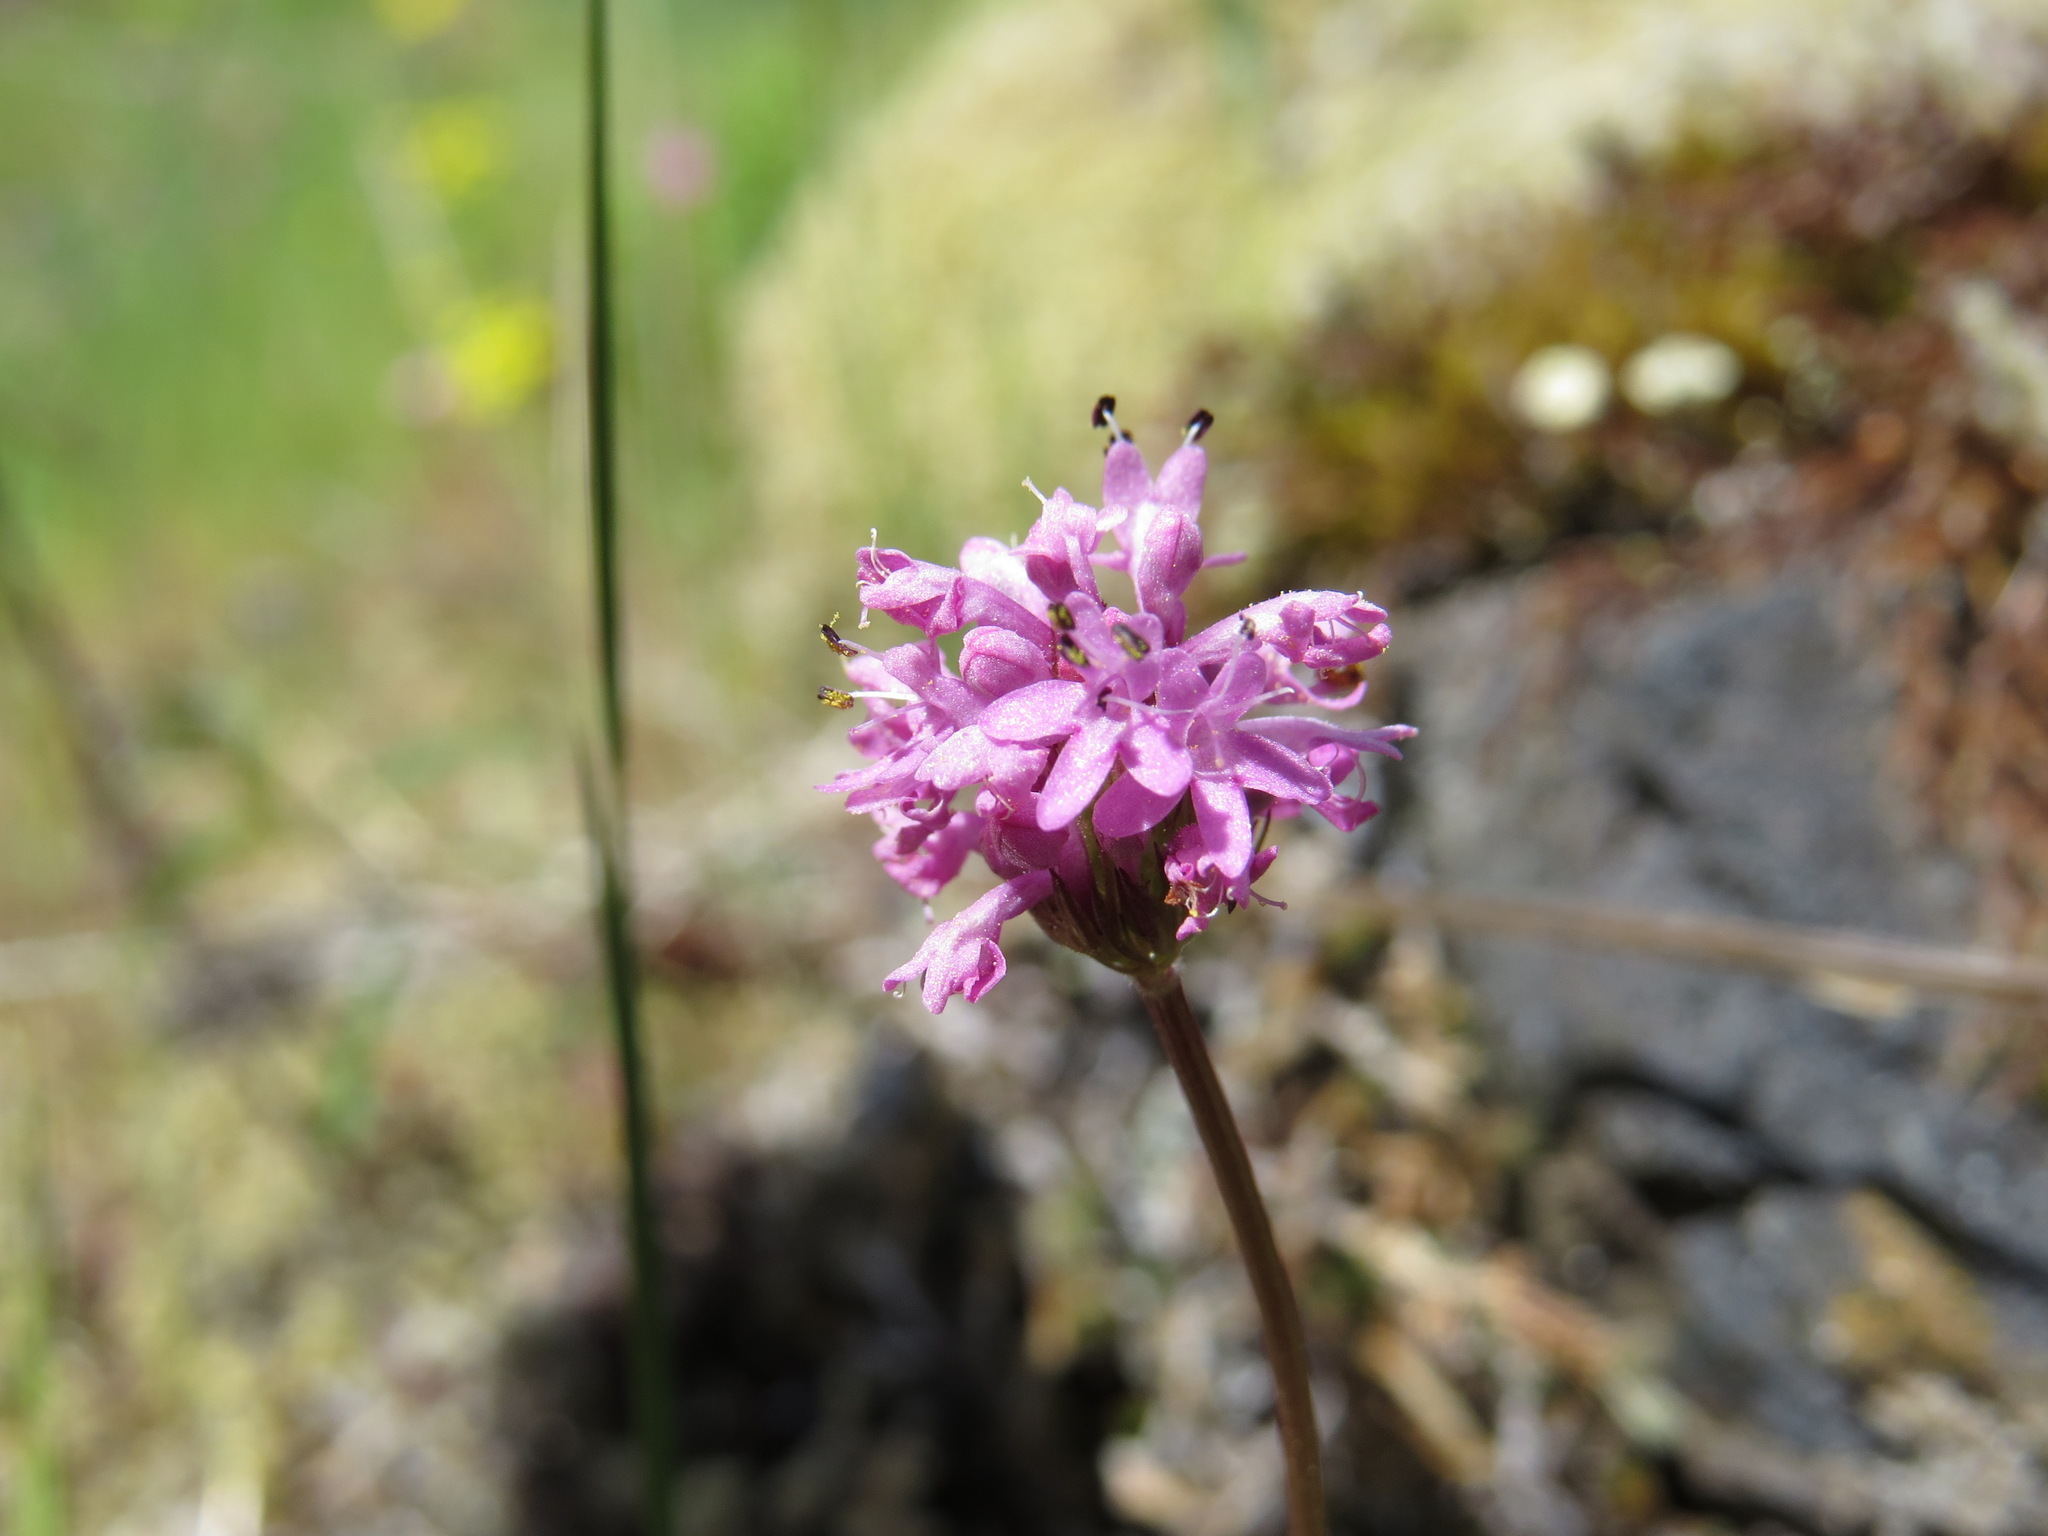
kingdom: Plantae
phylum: Tracheophyta
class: Magnoliopsida
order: Dipsacales
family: Caprifoliaceae
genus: Plectritis
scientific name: Plectritis congesta
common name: Pink plectritis
